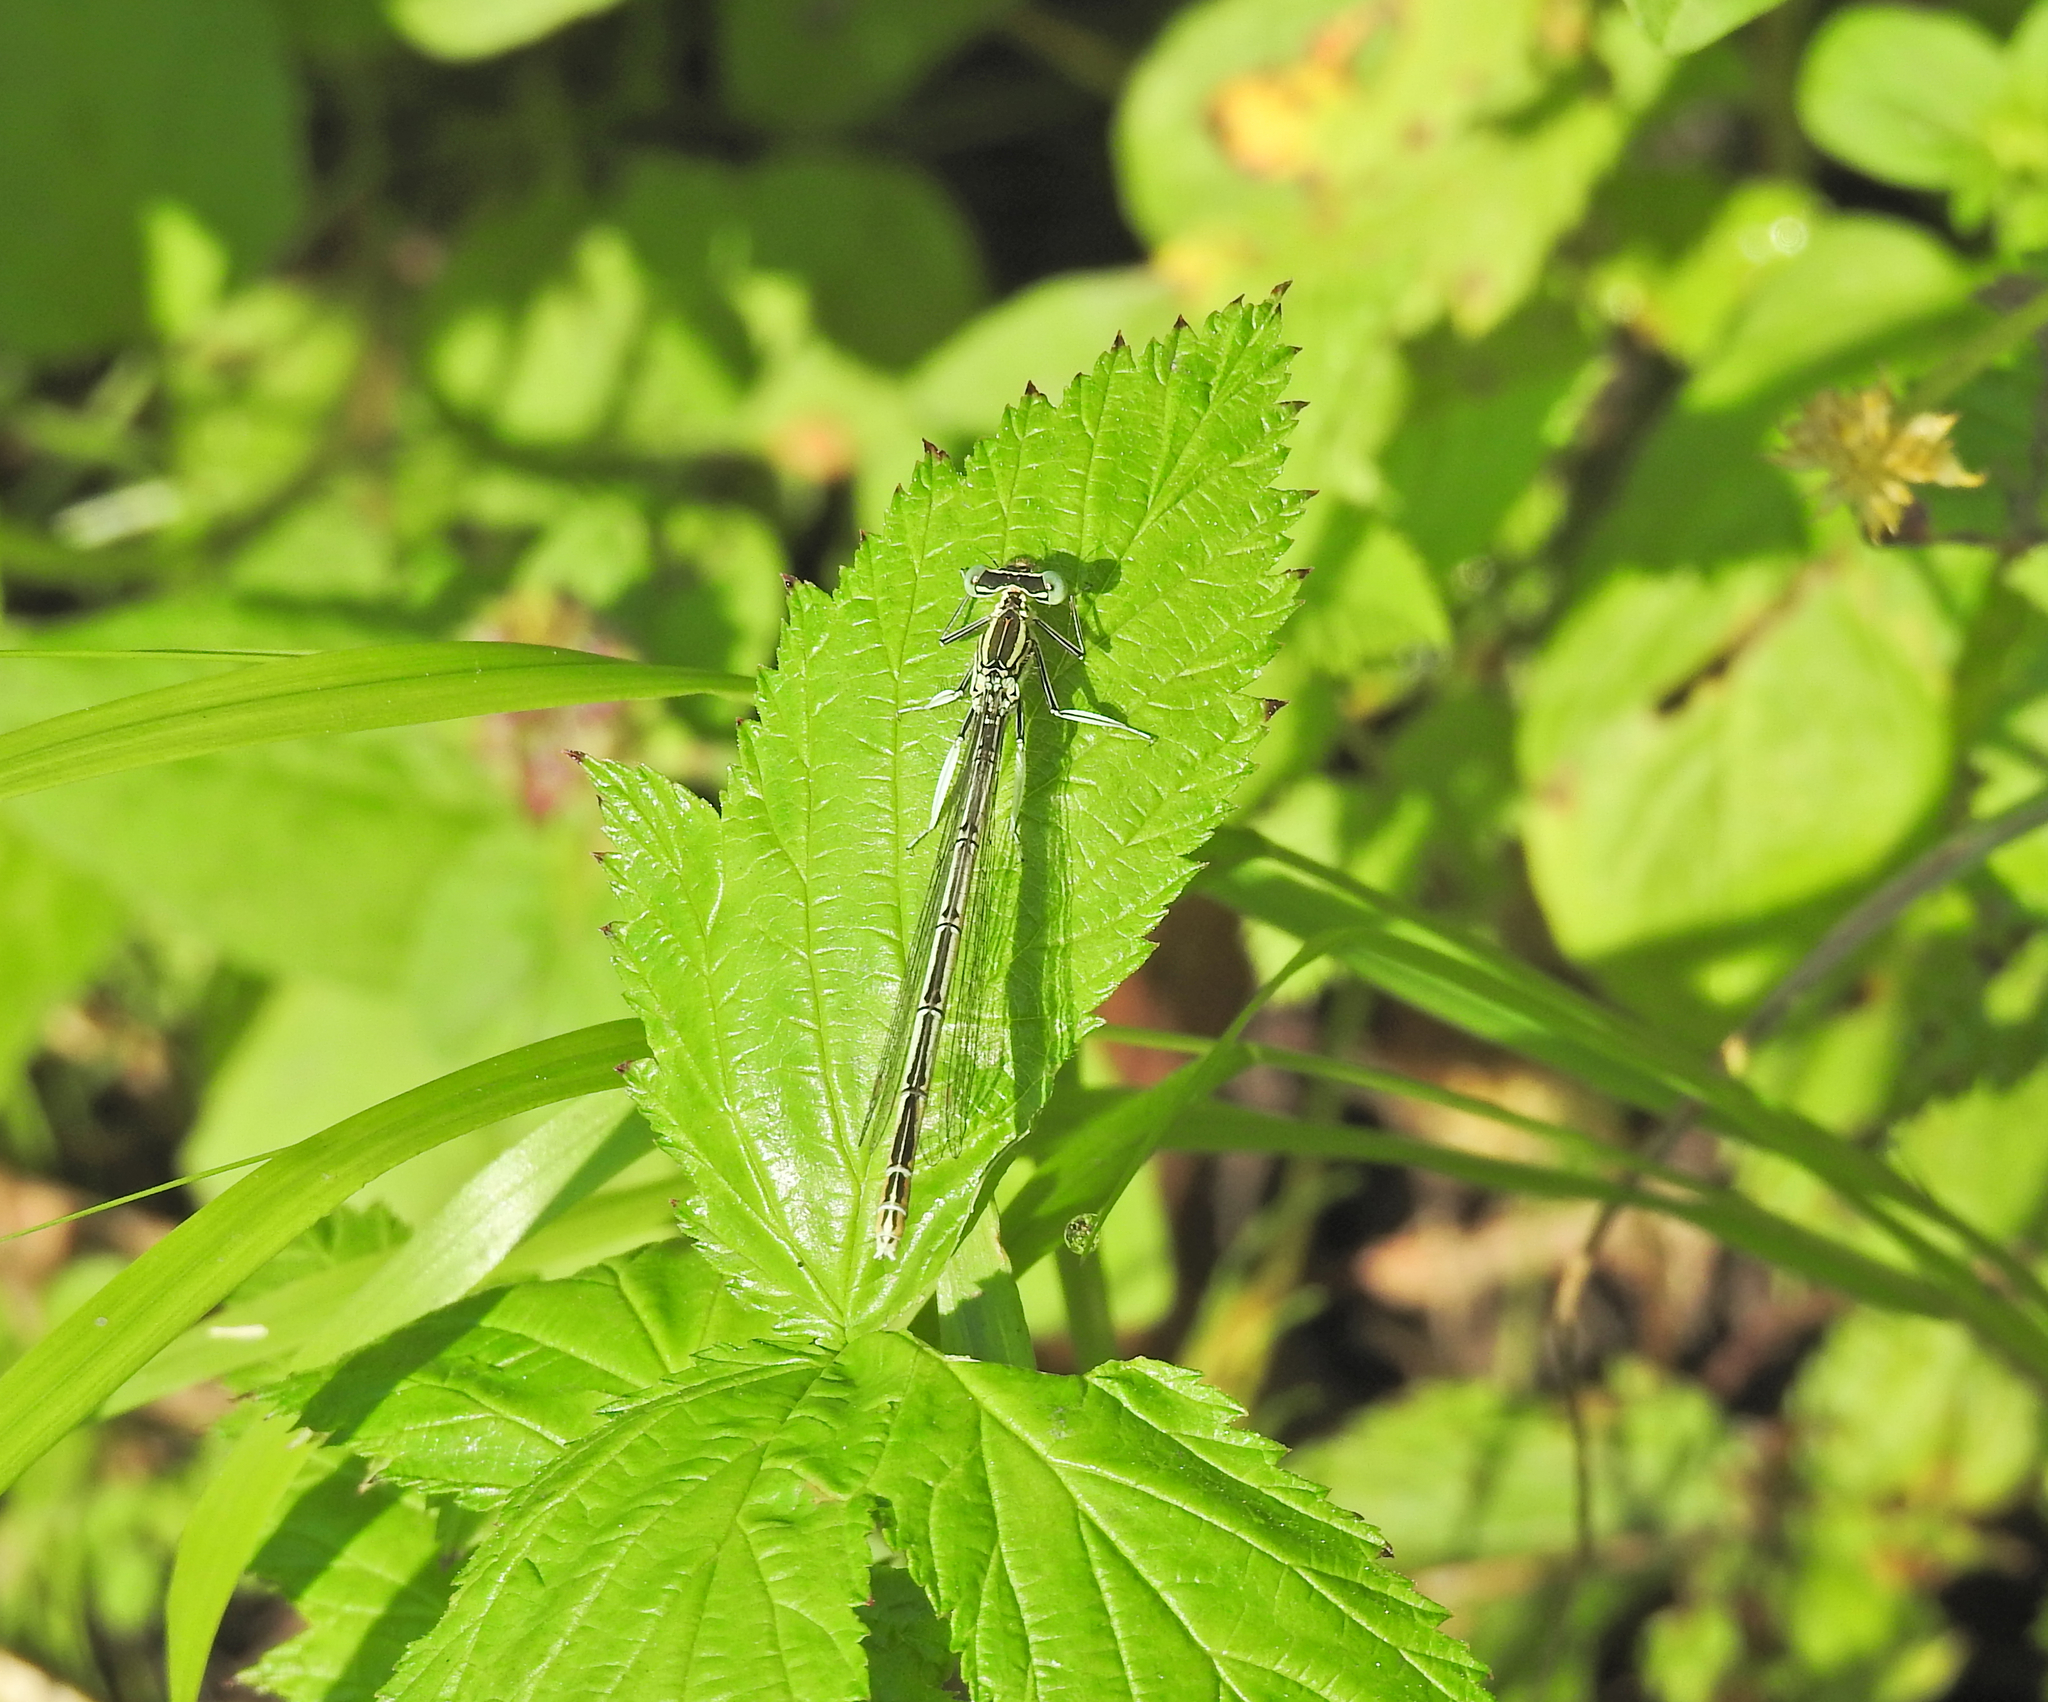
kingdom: Animalia
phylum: Arthropoda
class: Insecta
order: Odonata
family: Platycnemididae
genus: Platycnemis
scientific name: Platycnemis pennipes
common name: White-legged damselfly
